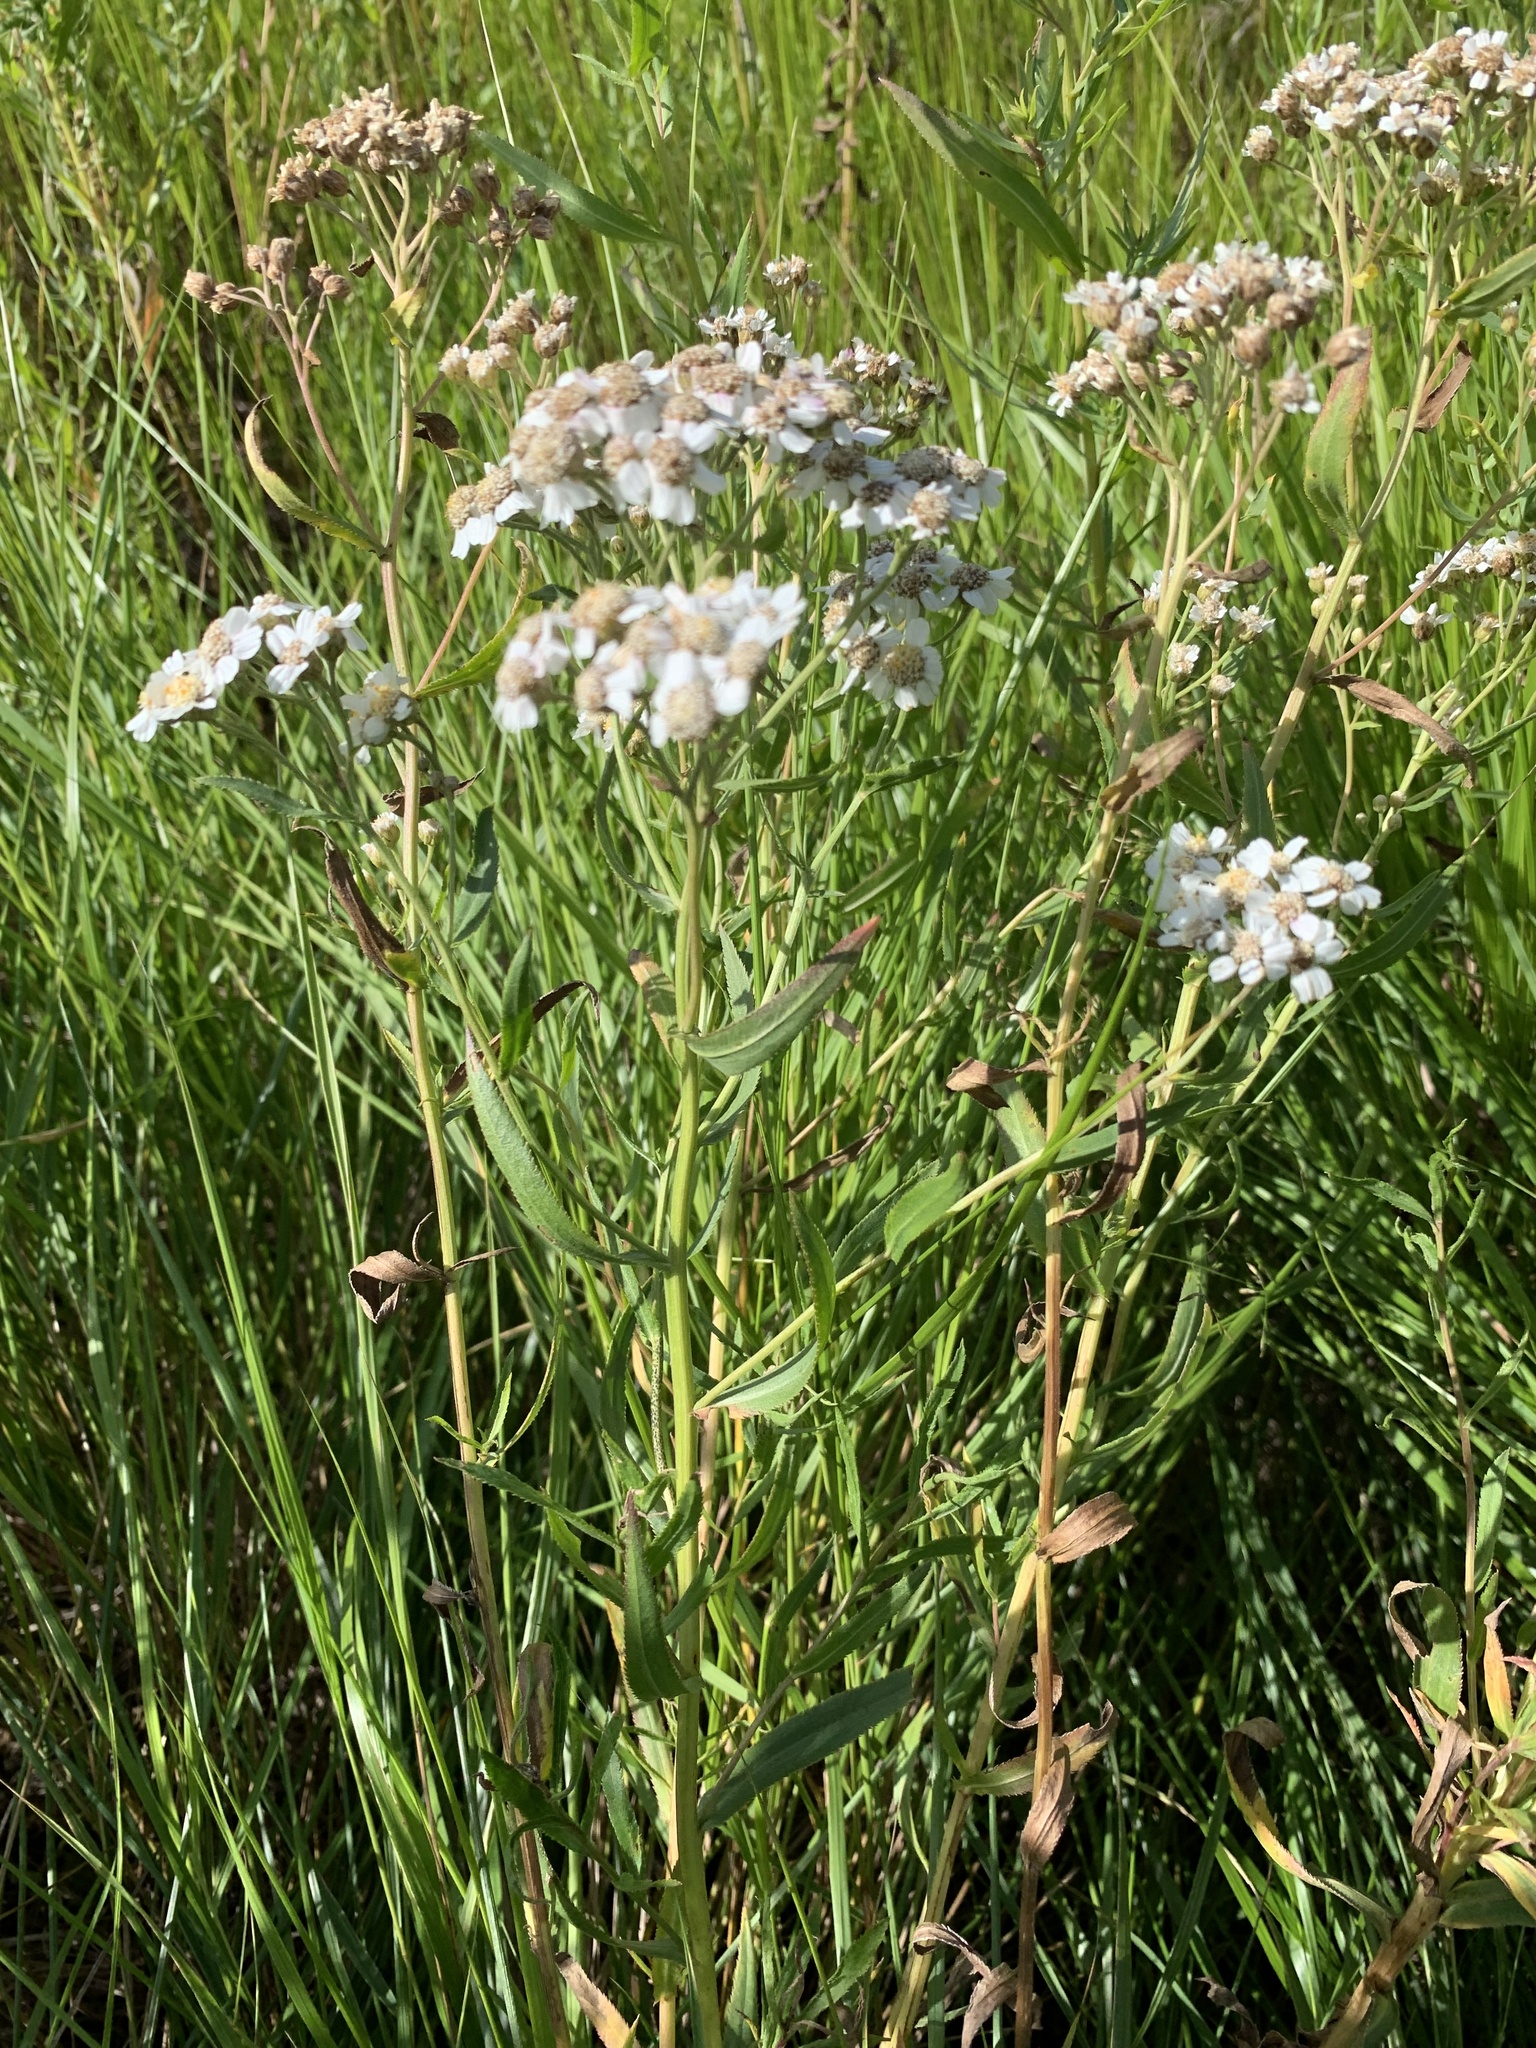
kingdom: Plantae
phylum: Tracheophyta
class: Magnoliopsida
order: Asterales
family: Asteraceae
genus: Achillea
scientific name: Achillea salicifolia
